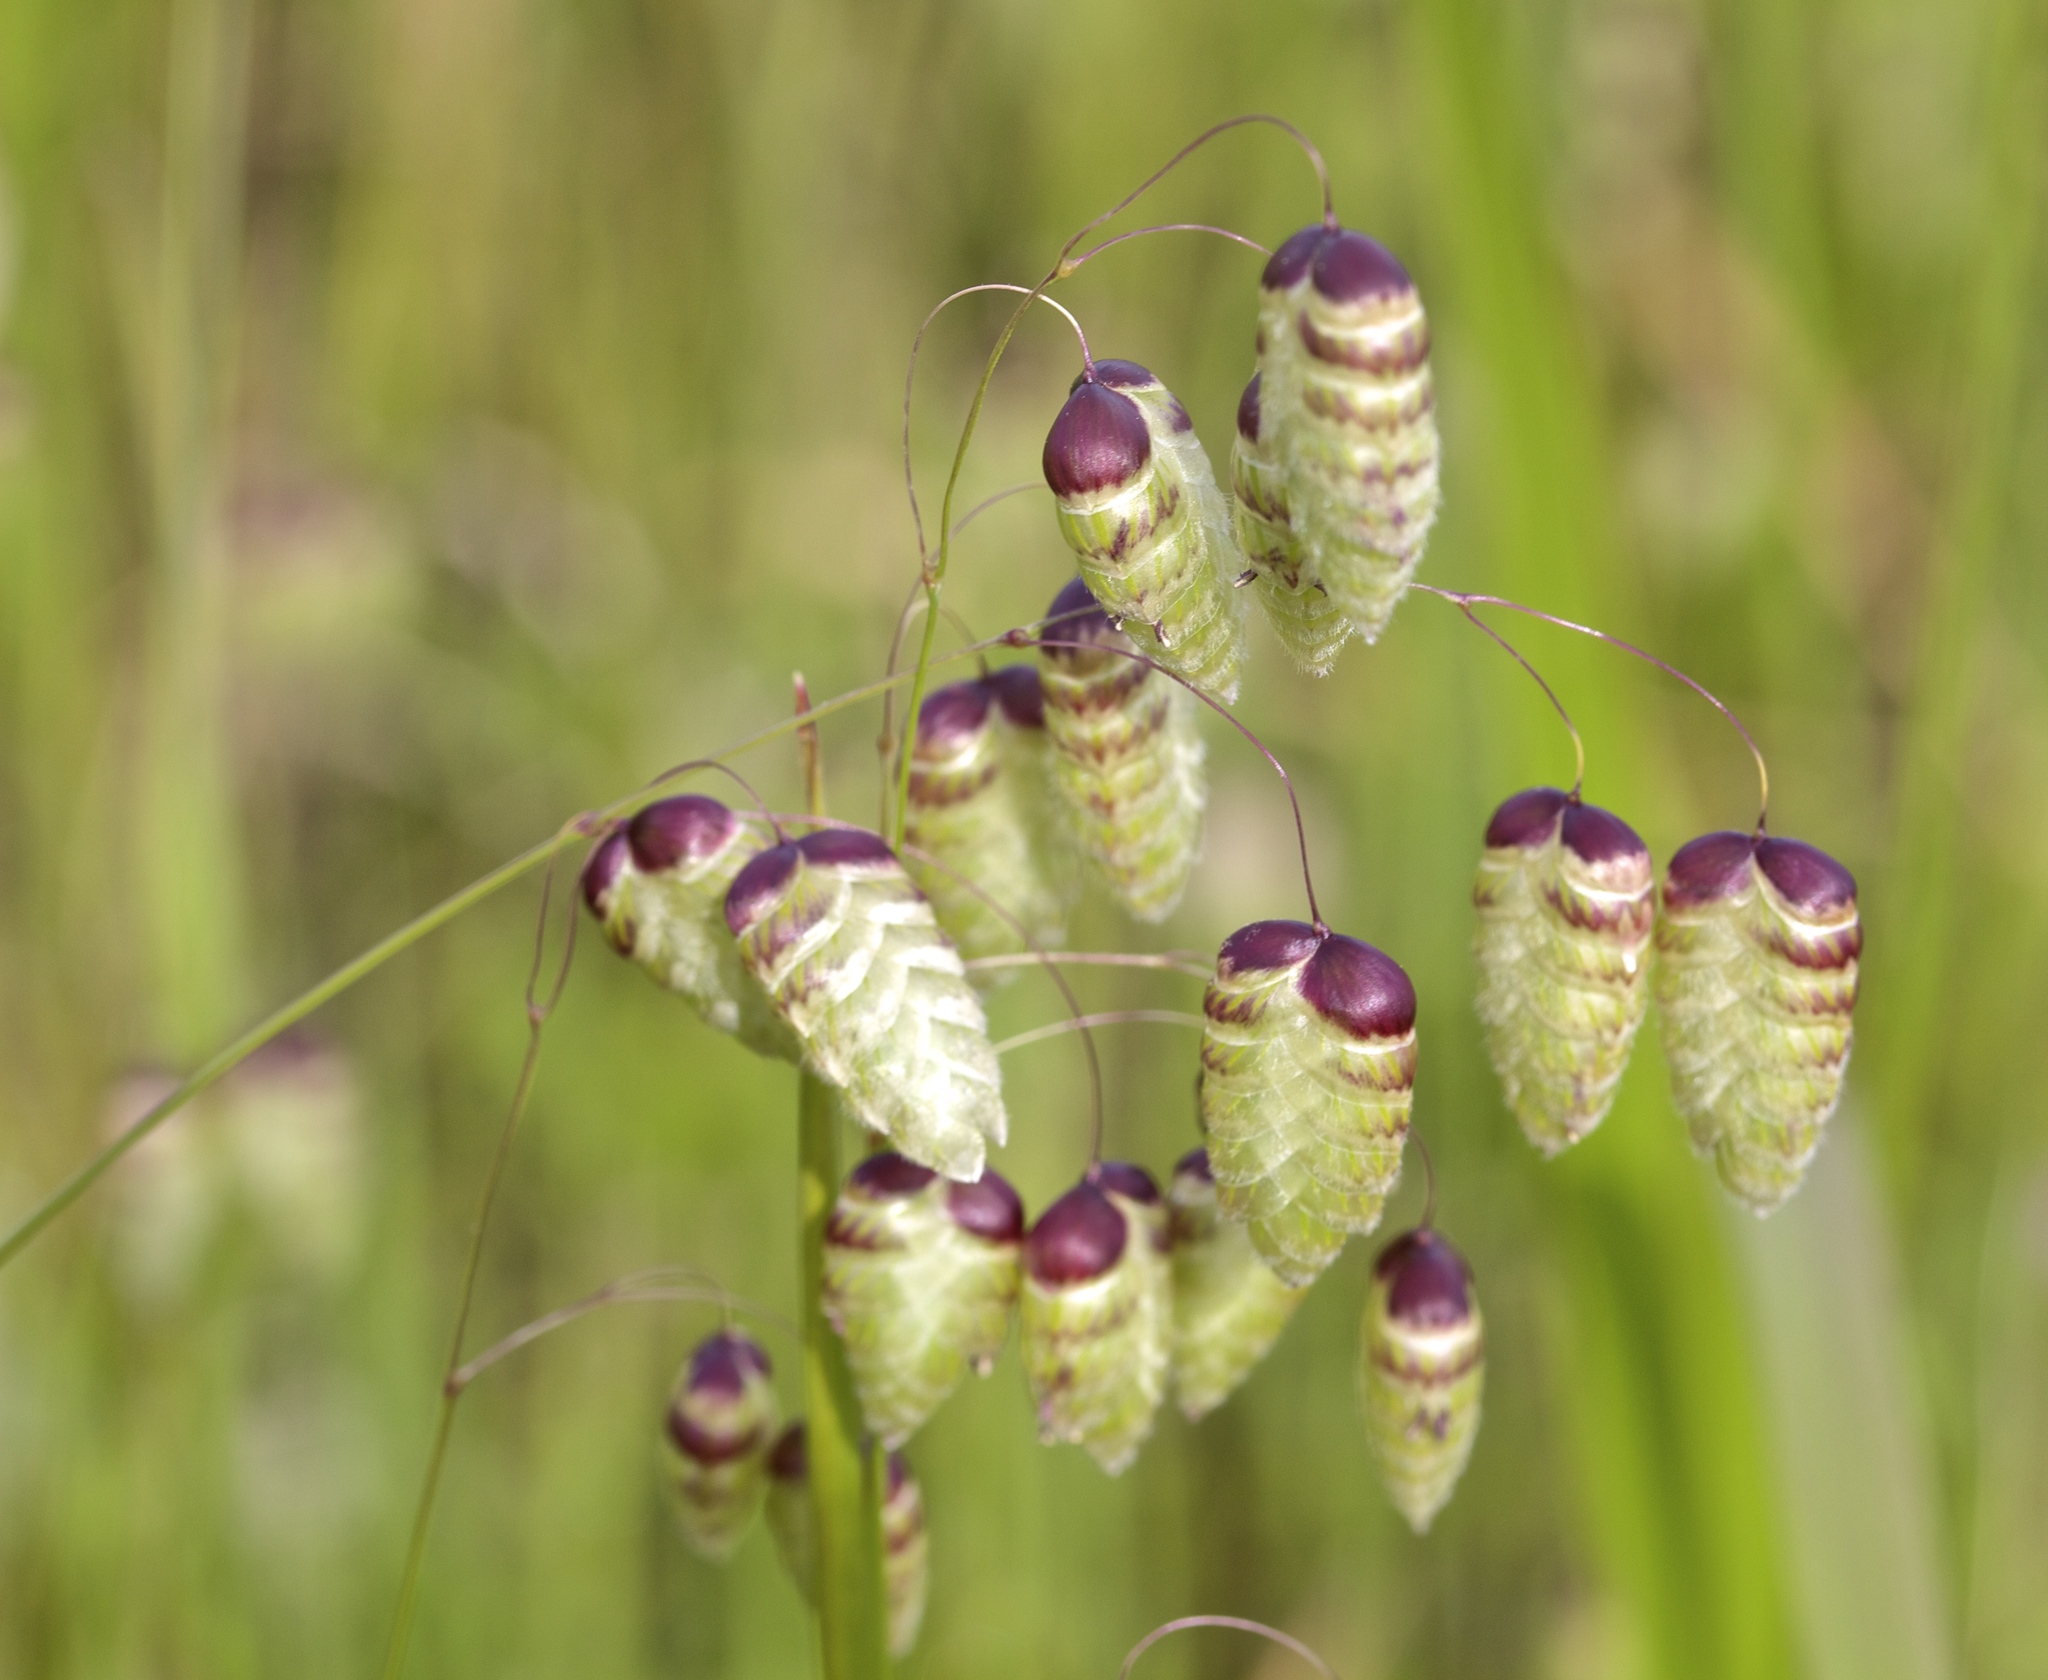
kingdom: Plantae
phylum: Tracheophyta
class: Liliopsida
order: Poales
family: Poaceae
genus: Briza
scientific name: Briza maxima
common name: Big quakinggrass
